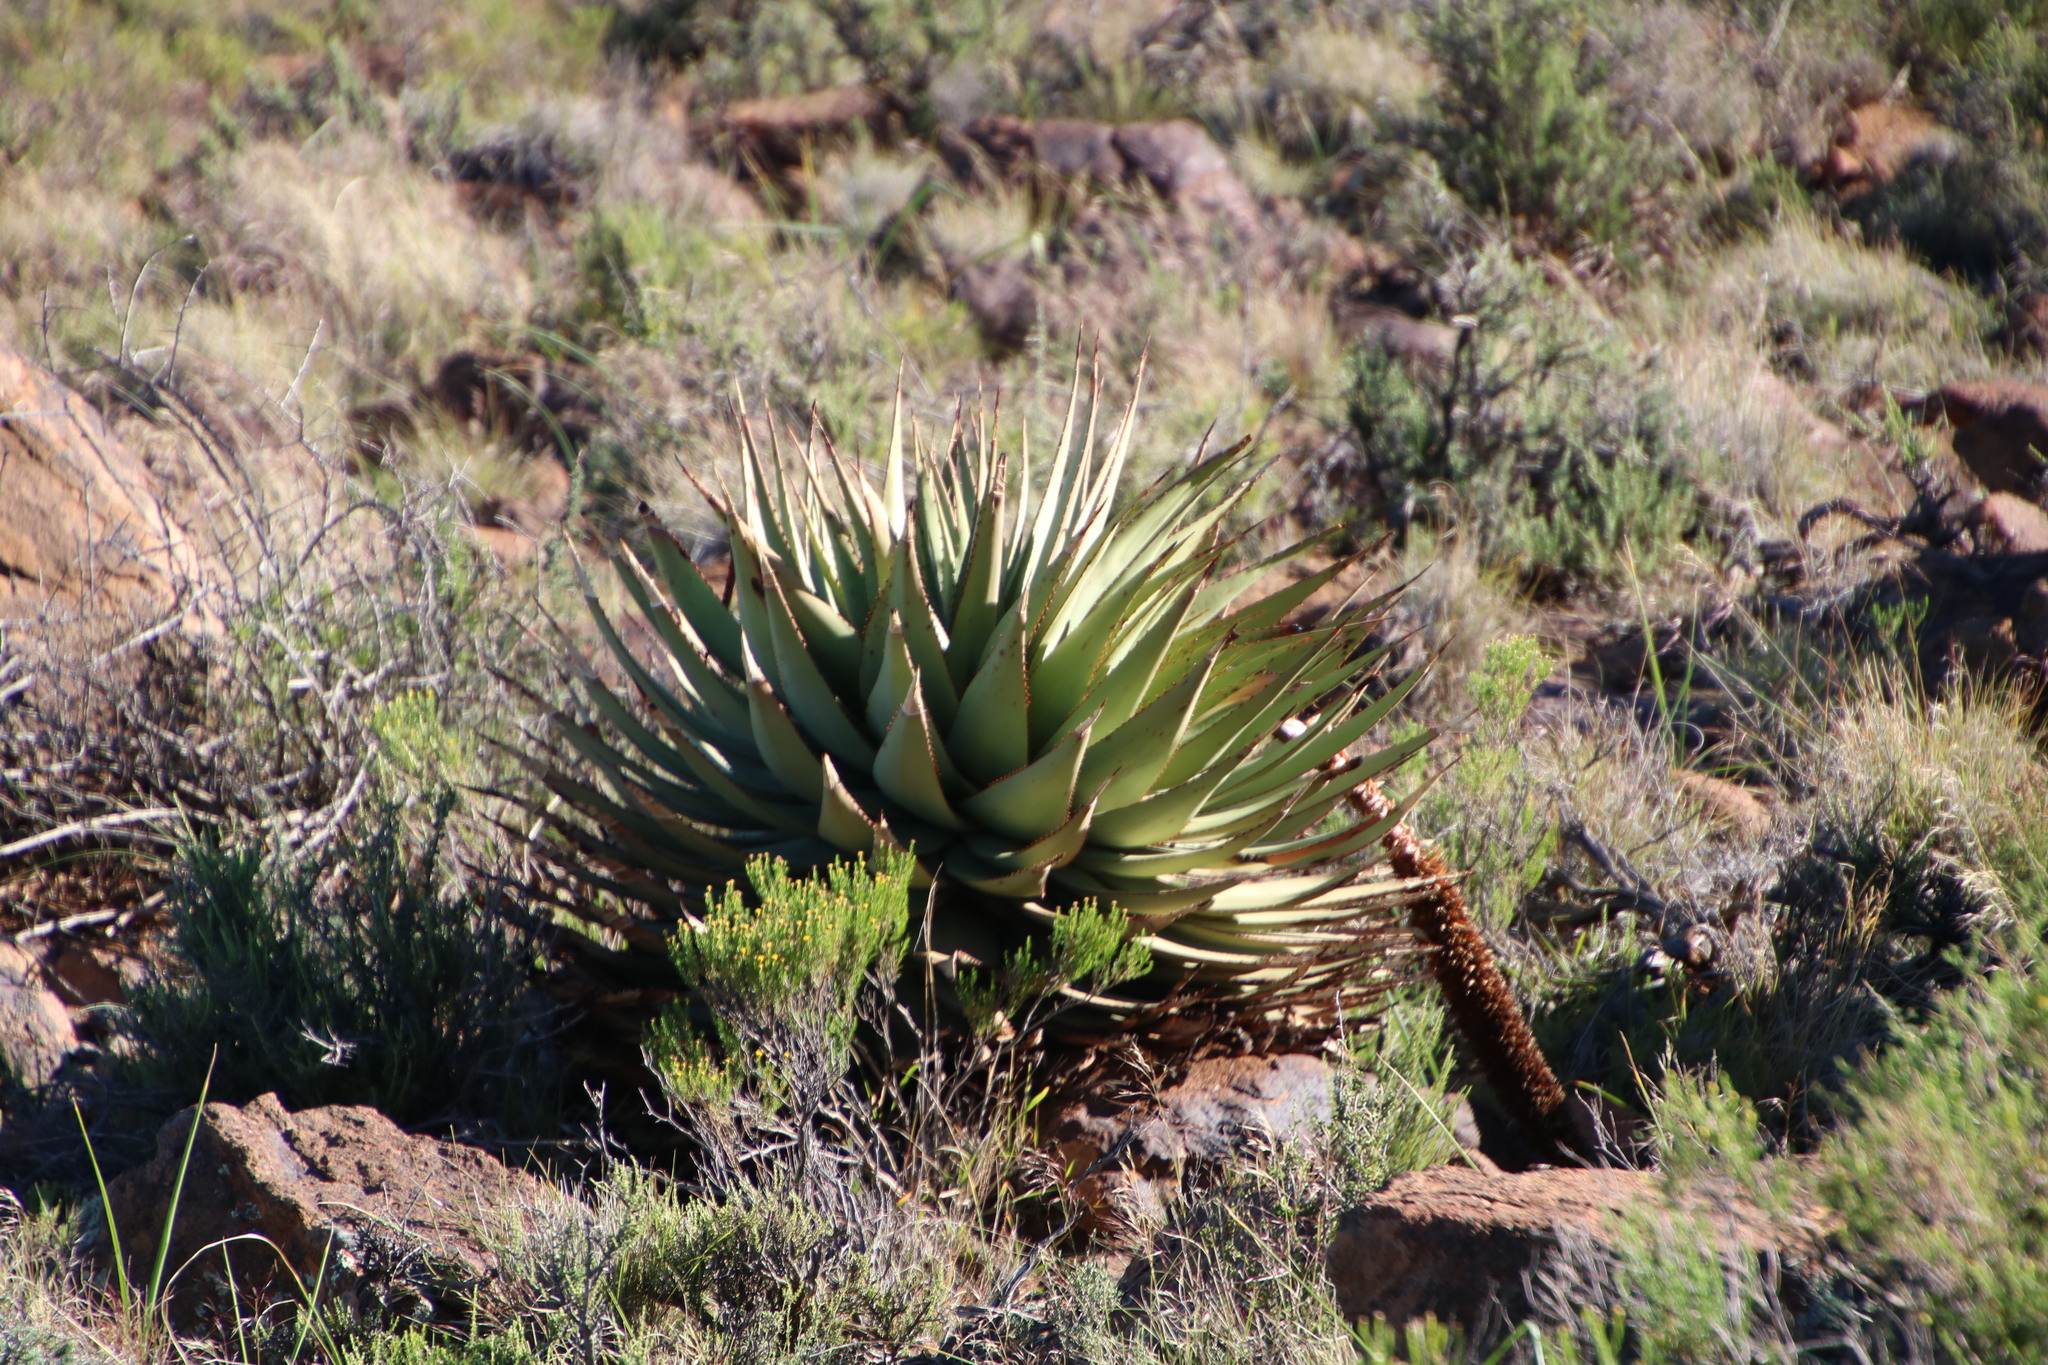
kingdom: Plantae
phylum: Tracheophyta
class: Liliopsida
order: Asparagales
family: Asphodelaceae
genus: Aloe
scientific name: Aloe broomii
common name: Berg alwyn
